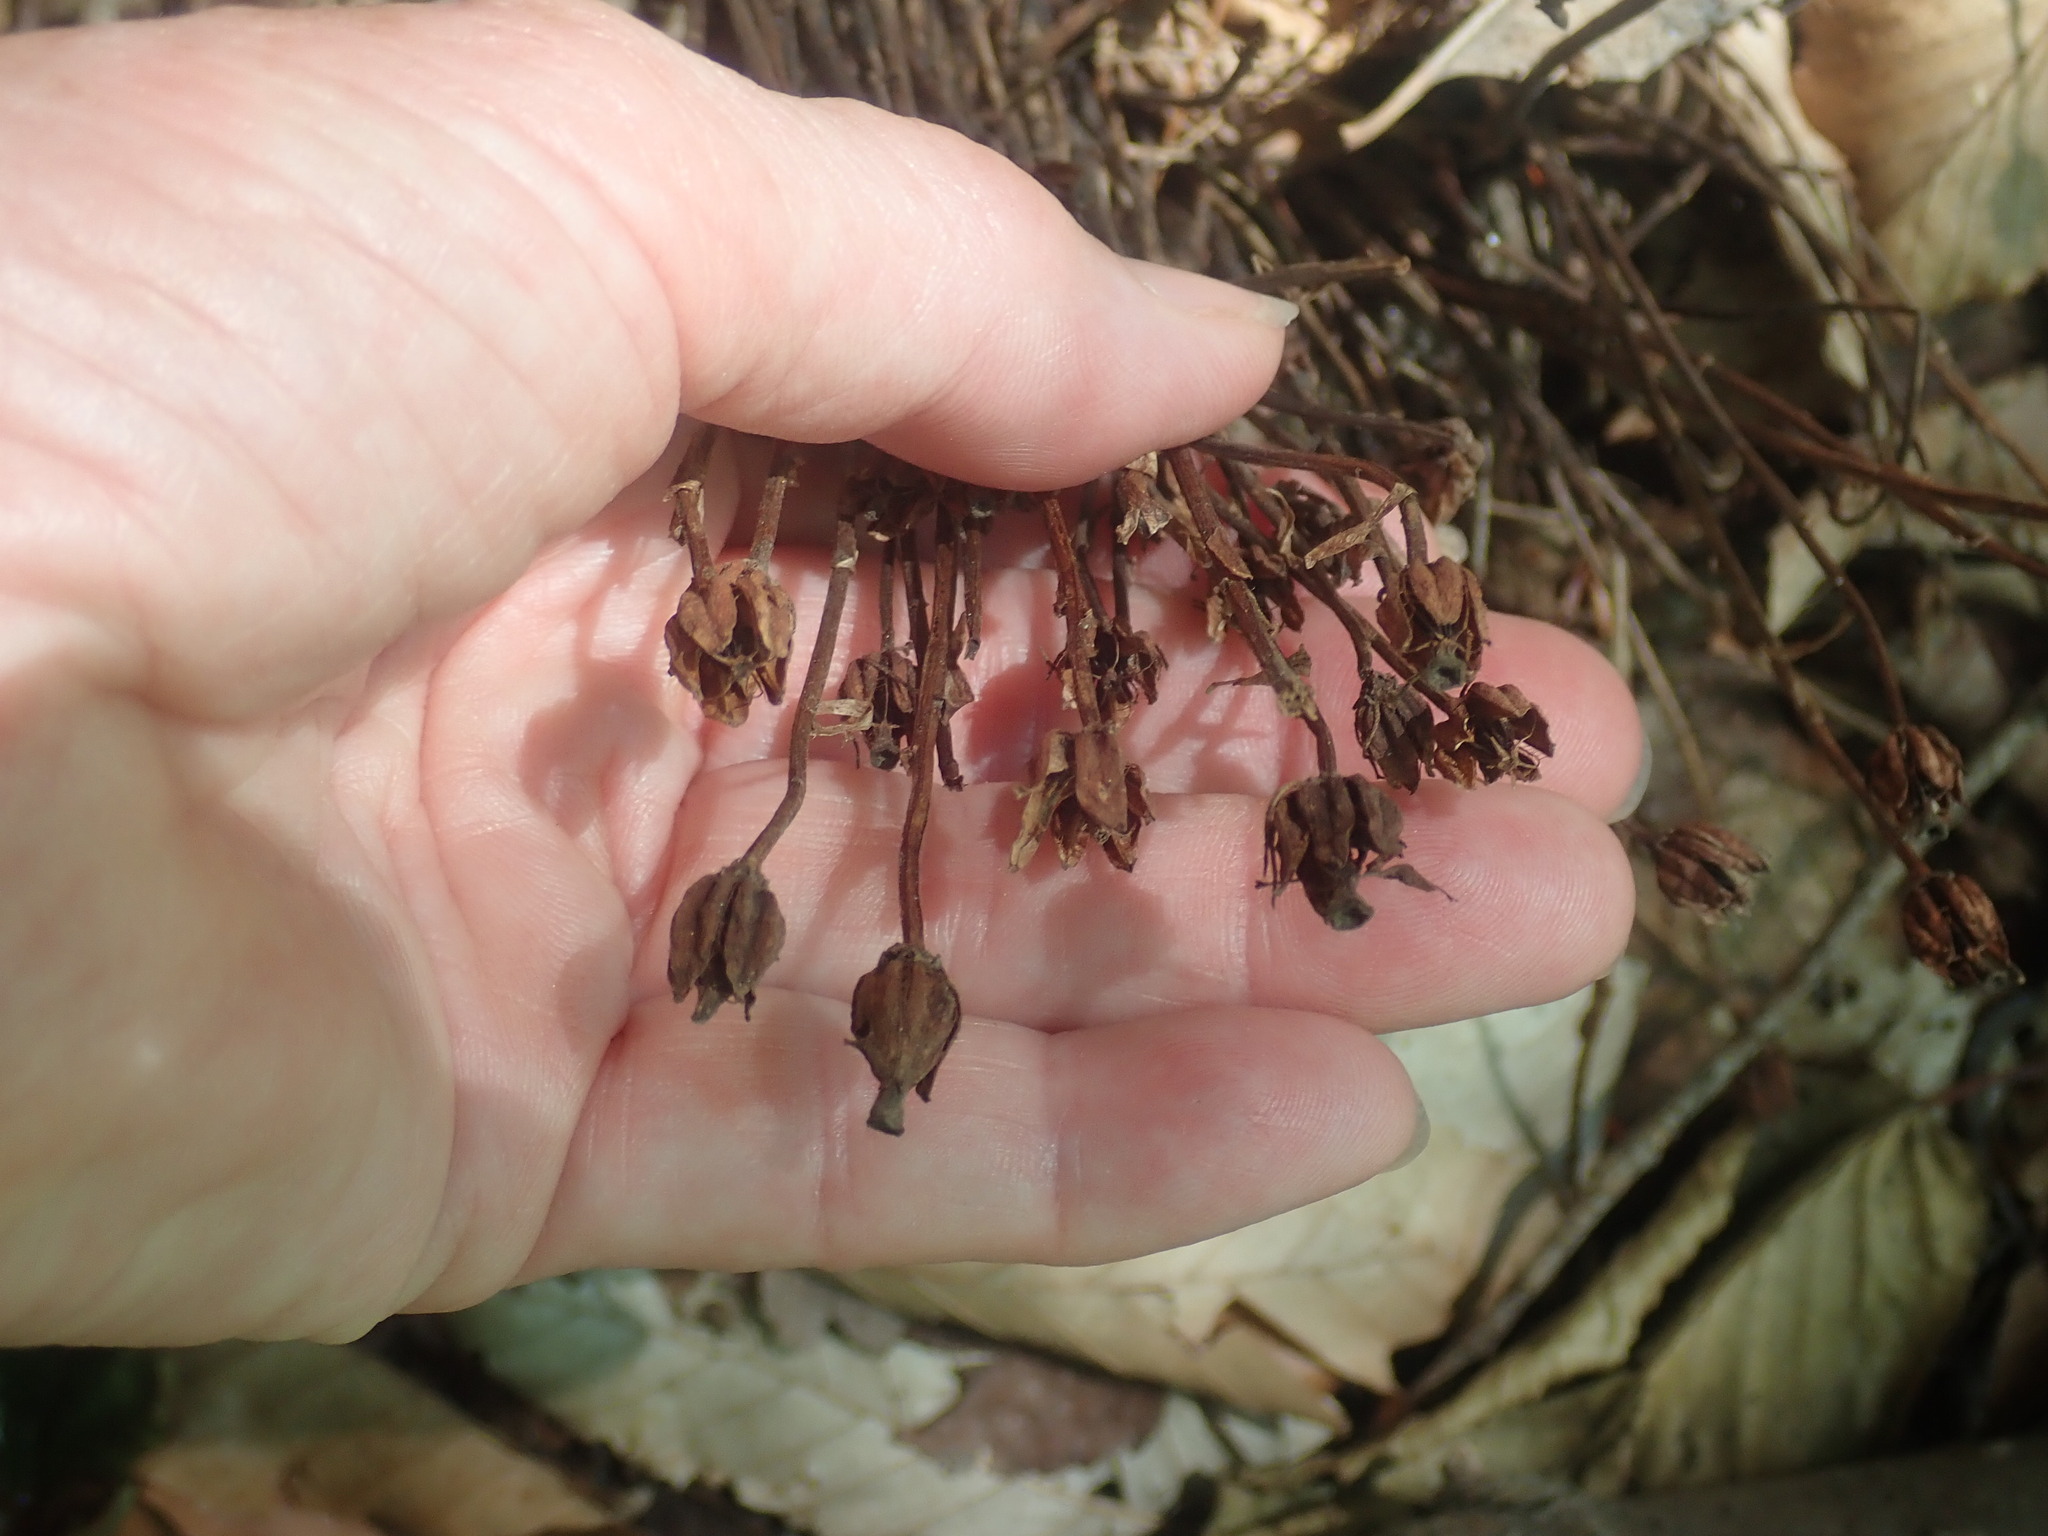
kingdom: Plantae
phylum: Tracheophyta
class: Magnoliopsida
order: Ericales
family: Ericaceae
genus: Monotropa
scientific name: Monotropa uniflora
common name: Convulsion root
